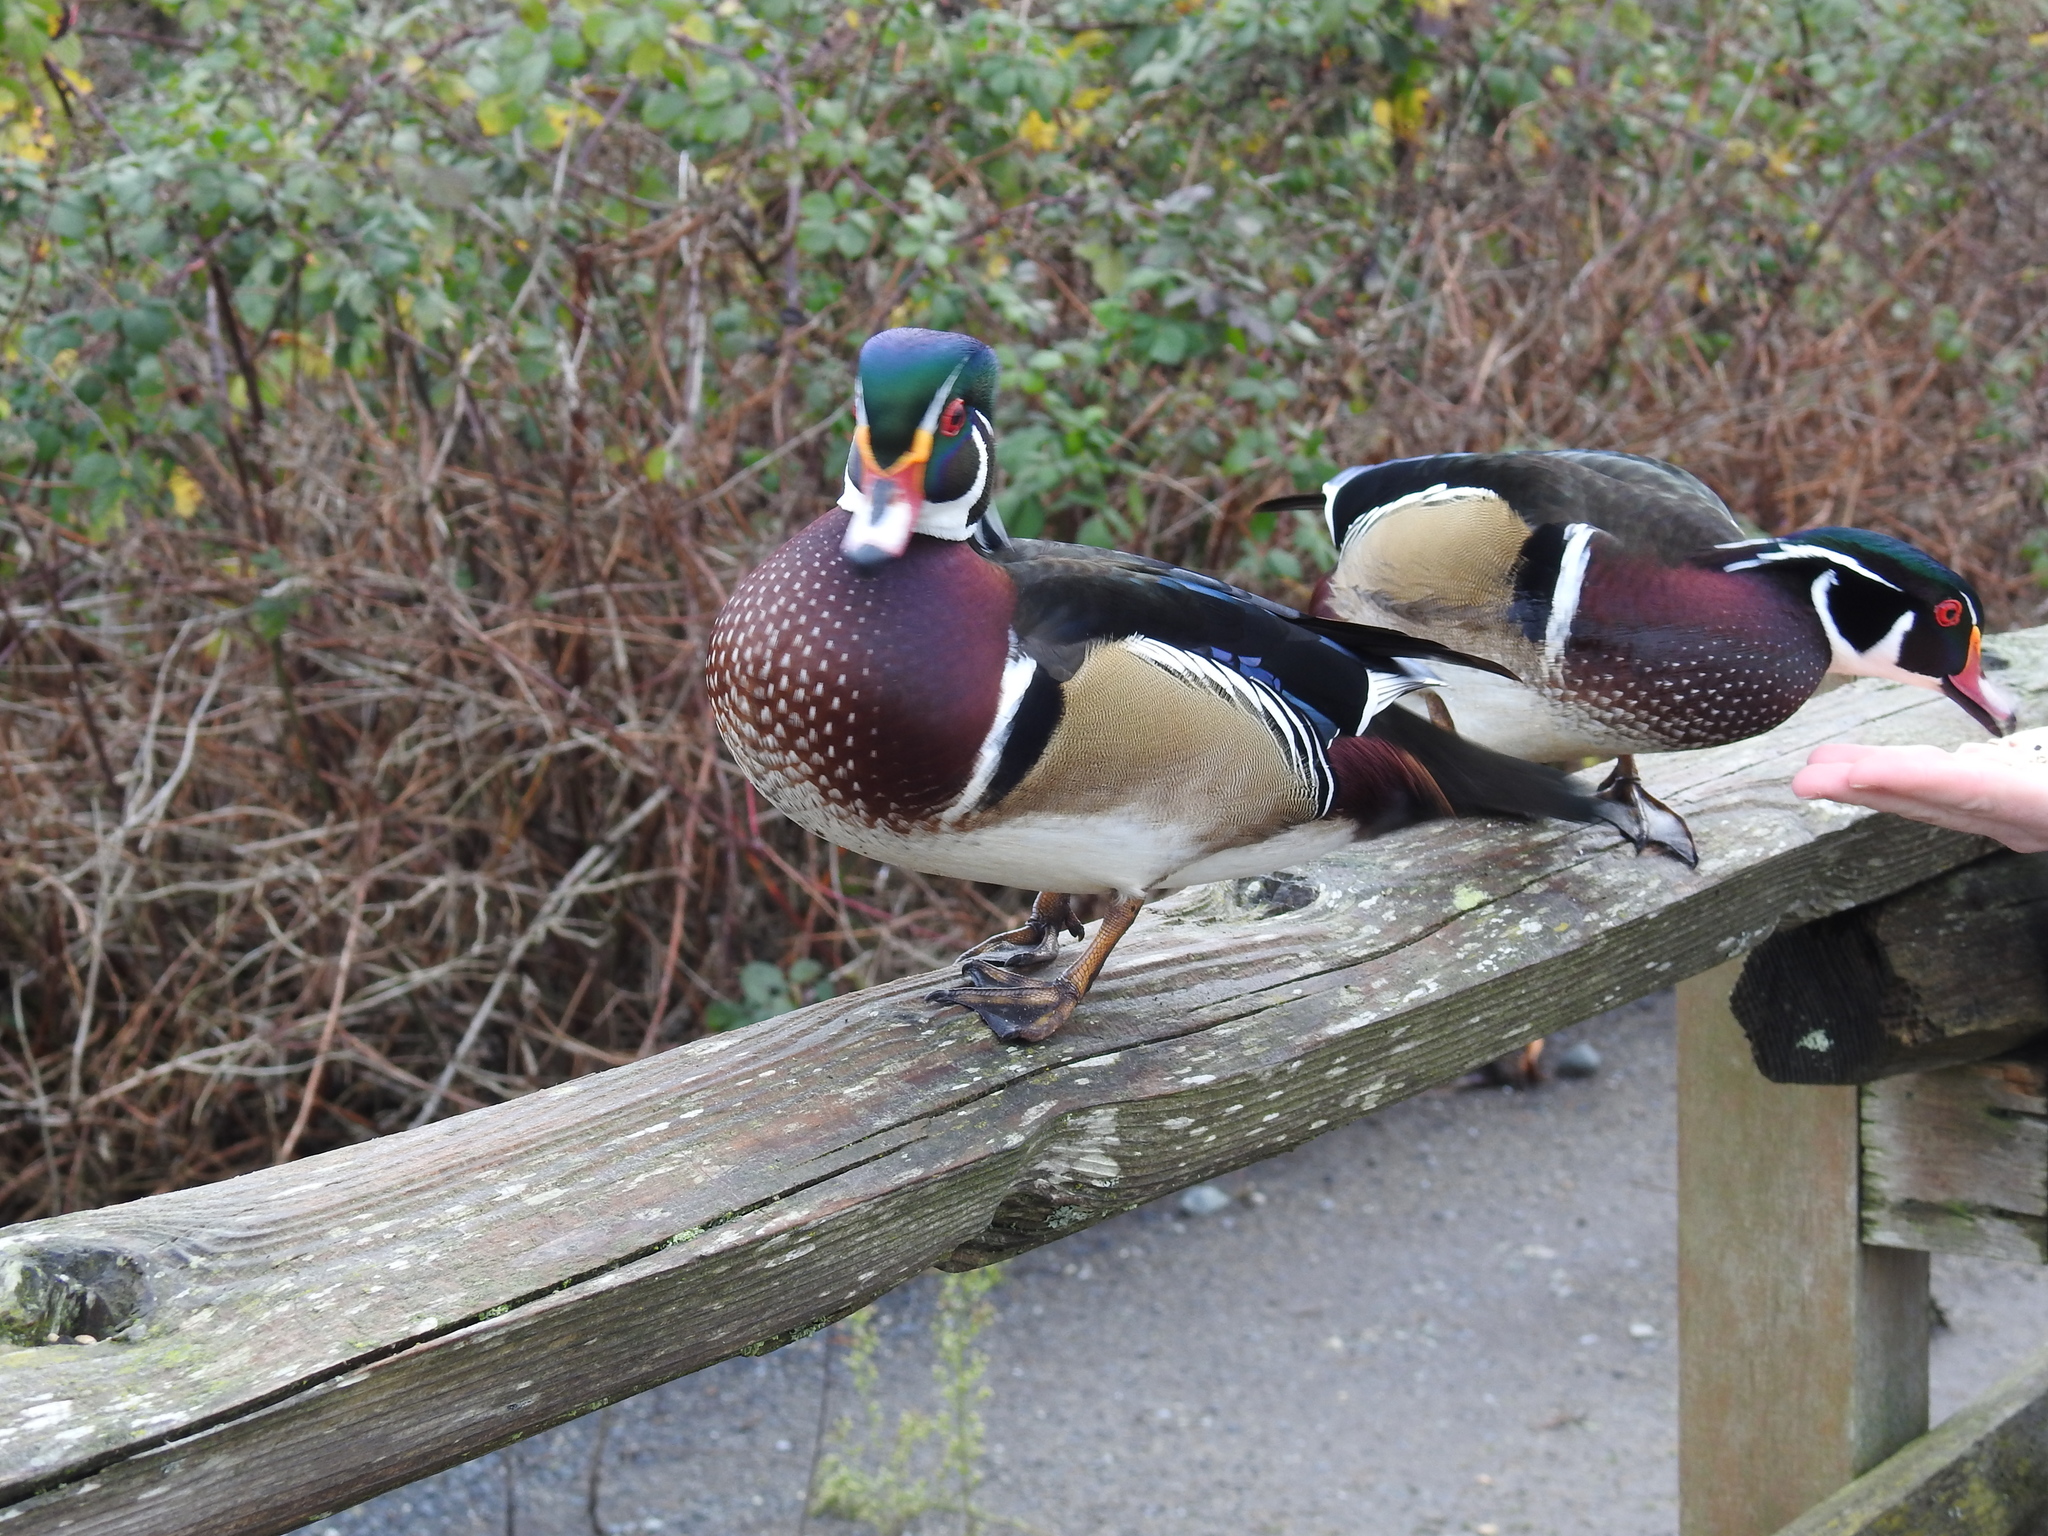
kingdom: Animalia
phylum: Chordata
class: Aves
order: Anseriformes
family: Anatidae
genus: Aix
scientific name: Aix sponsa
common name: Wood duck
